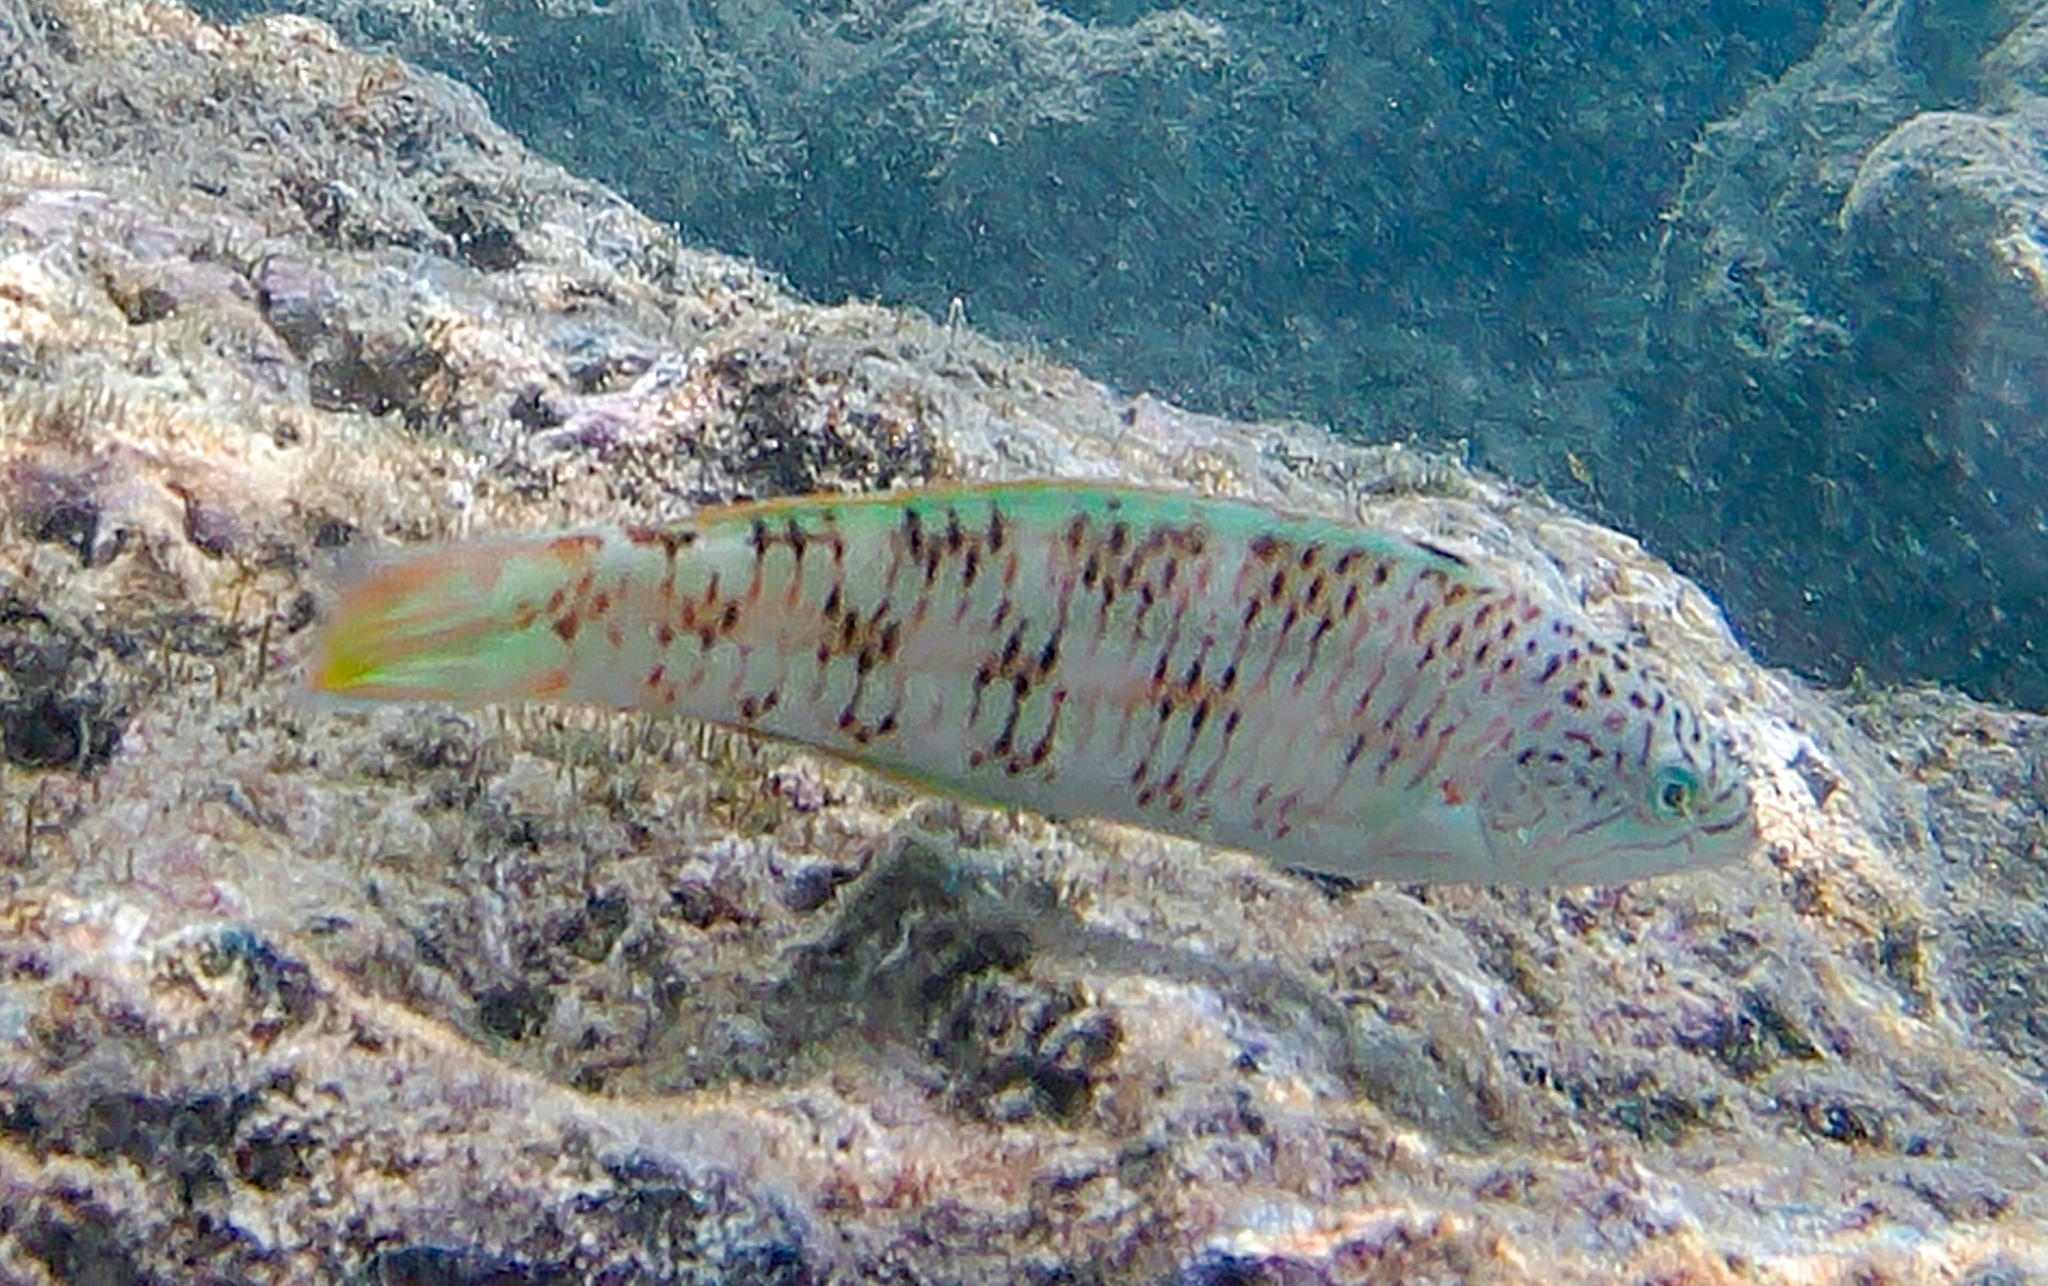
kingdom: Animalia
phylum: Chordata
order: Perciformes
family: Labridae
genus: Thalassoma
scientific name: Thalassoma trilobatum
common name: Christmas wrasse
